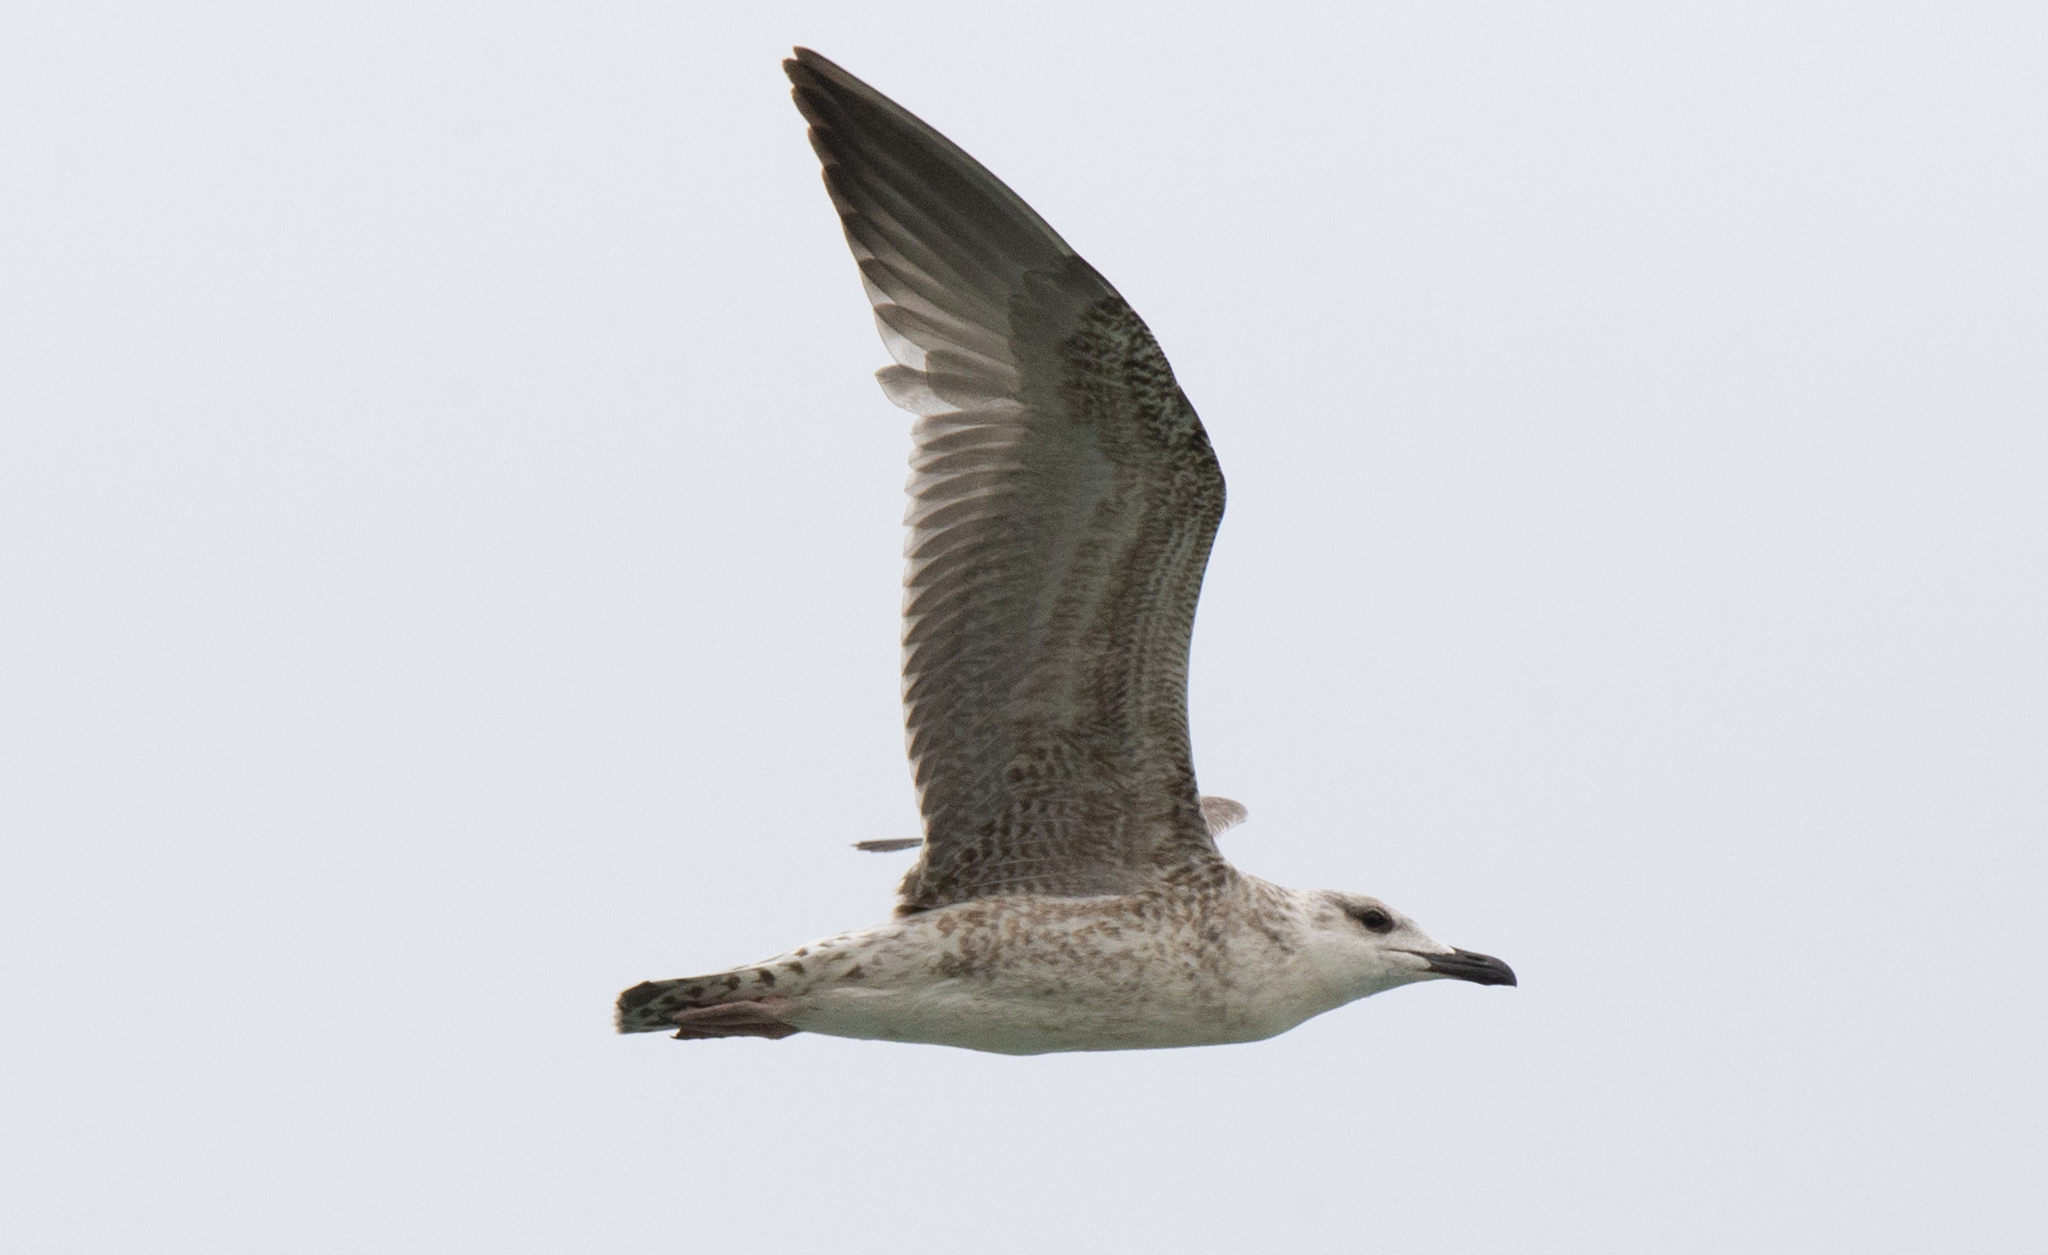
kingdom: Animalia
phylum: Chordata
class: Aves
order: Charadriiformes
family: Laridae
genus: Larus
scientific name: Larus michahellis
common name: Yellow-legged gull
